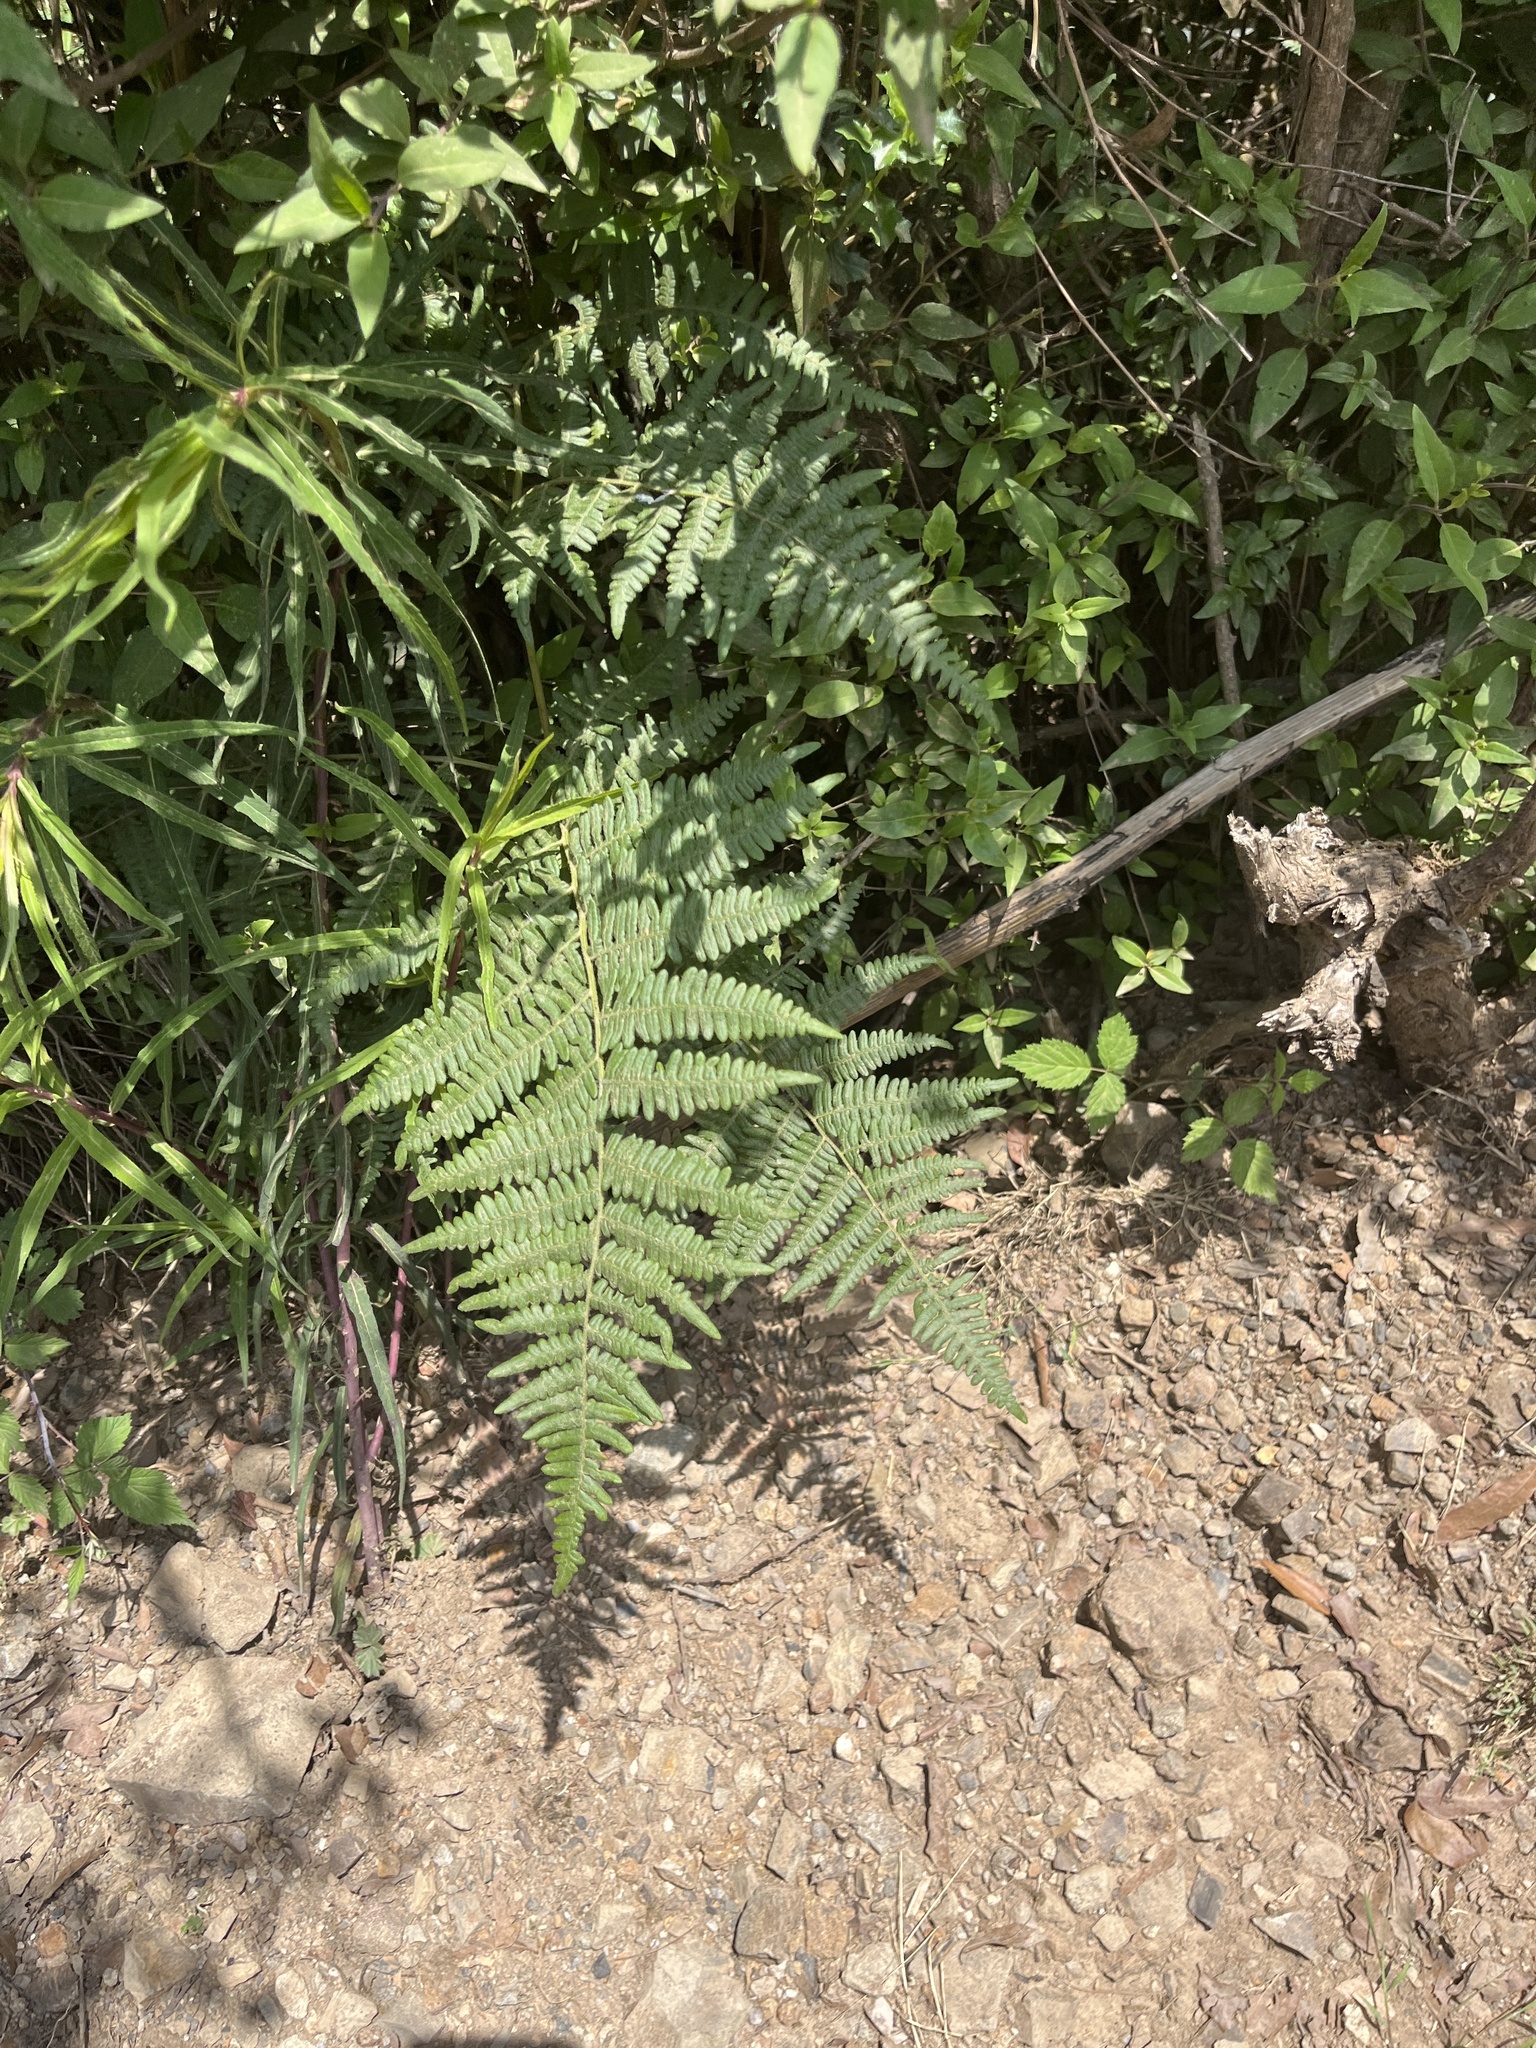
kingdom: Plantae
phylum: Tracheophyta
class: Polypodiopsida
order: Polypodiales
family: Dennstaedtiaceae
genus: Pteridium
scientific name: Pteridium aquilinum
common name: Bracken
